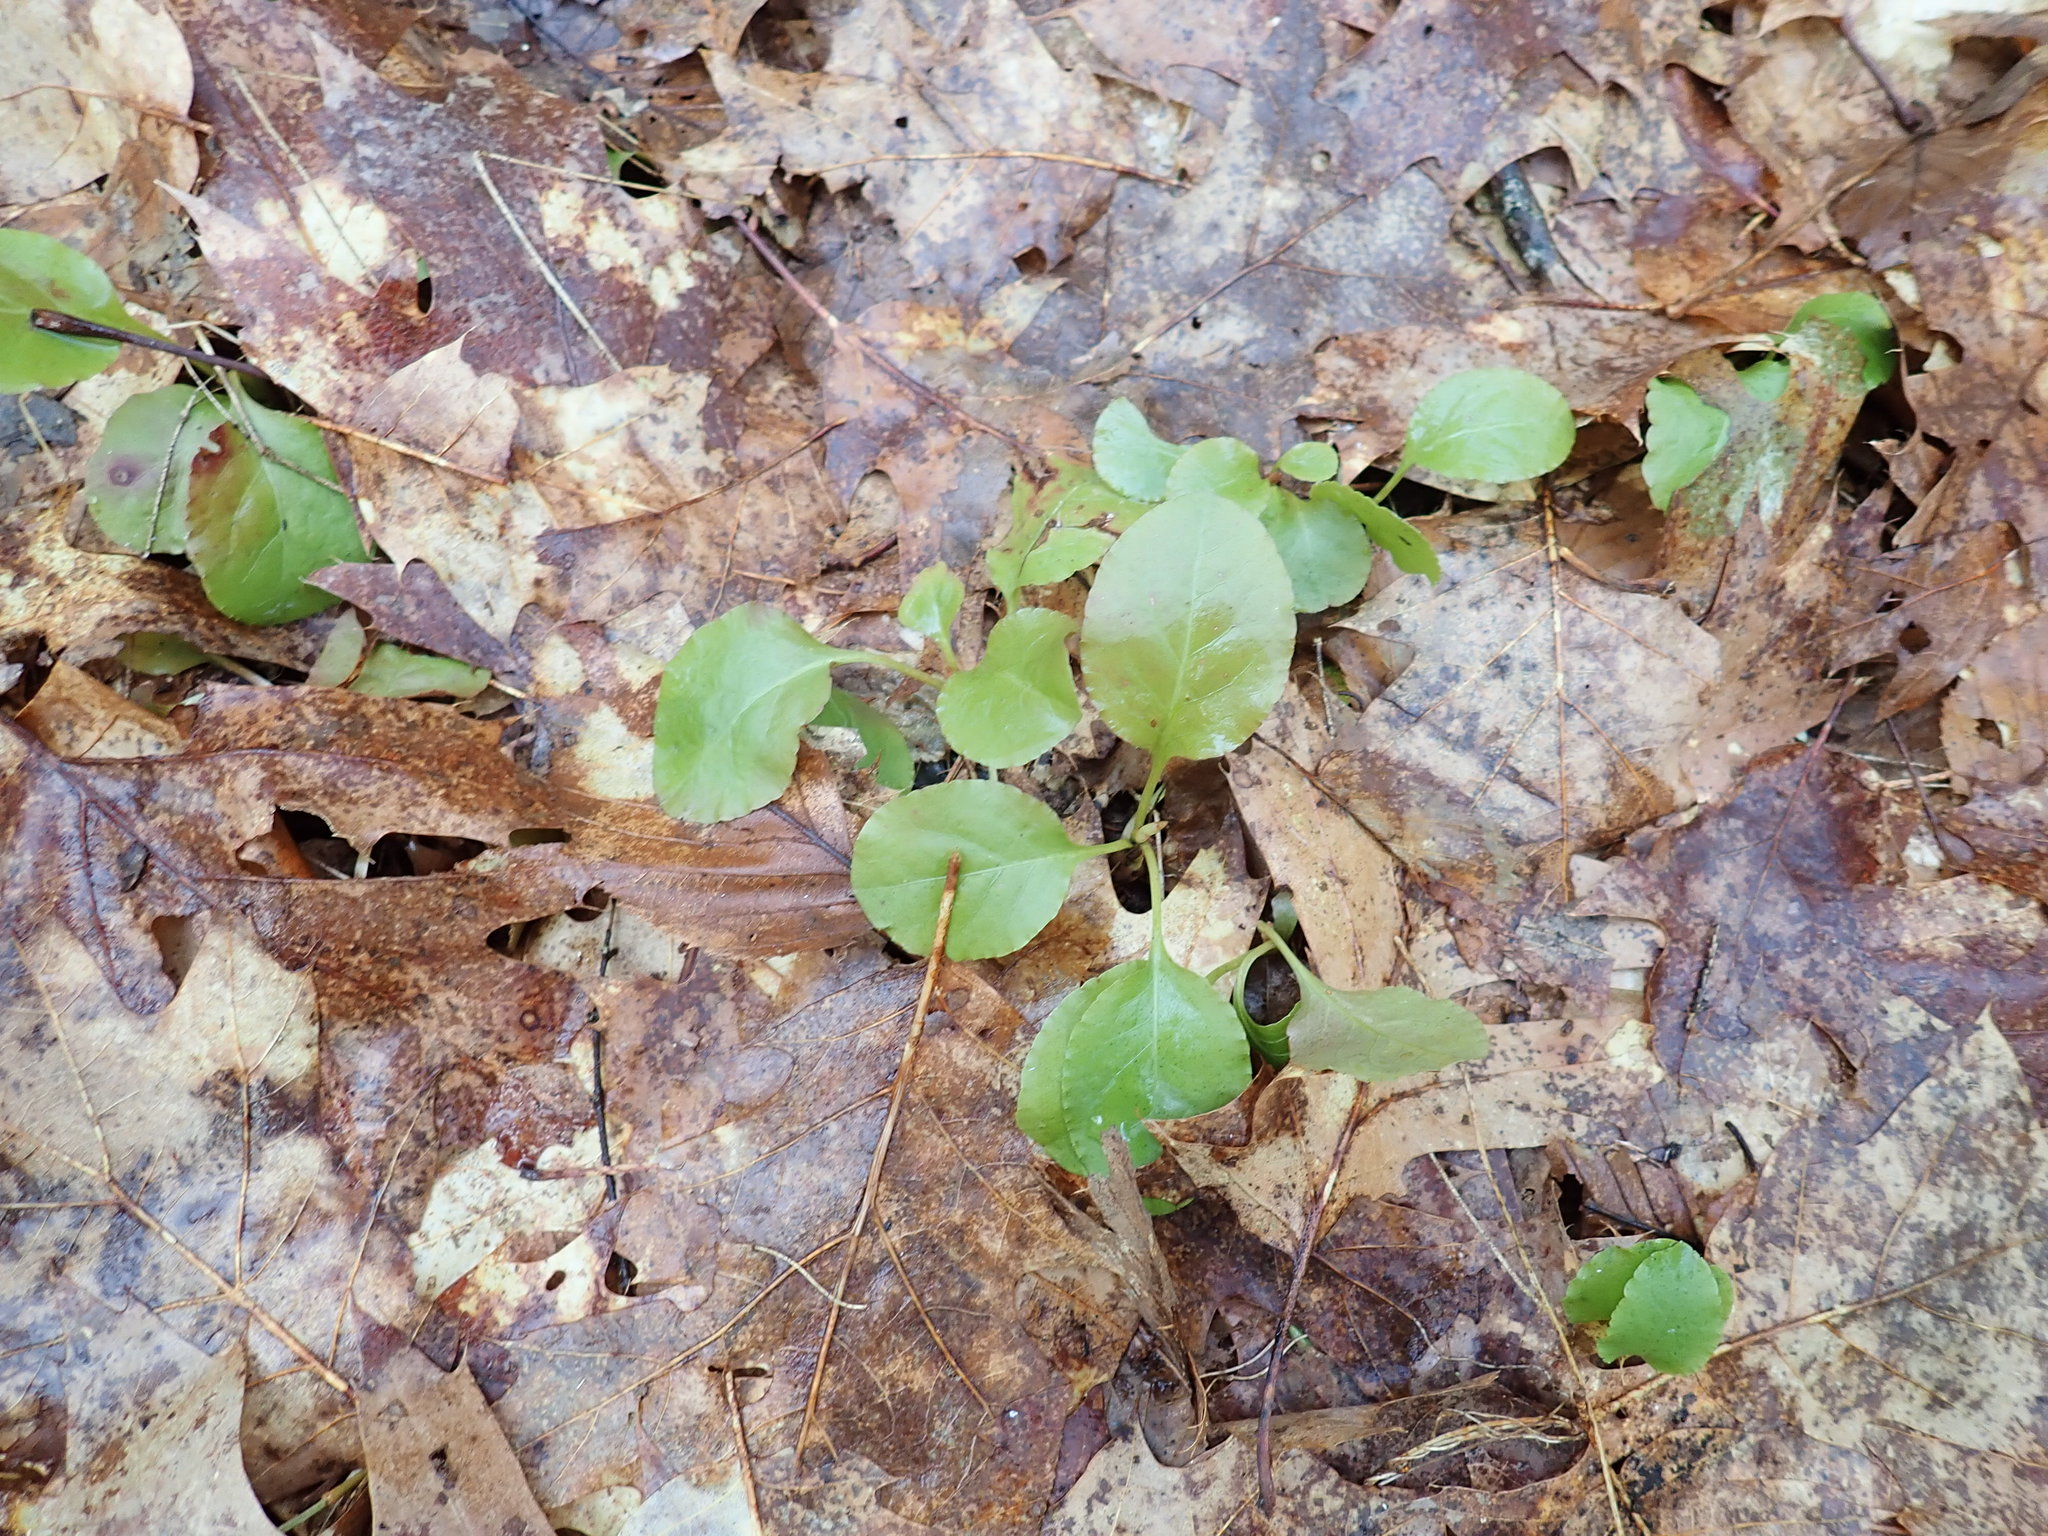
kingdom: Plantae
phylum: Tracheophyta
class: Magnoliopsida
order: Ericales
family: Ericaceae
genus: Pyrola
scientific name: Pyrola elliptica
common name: Shinleaf
